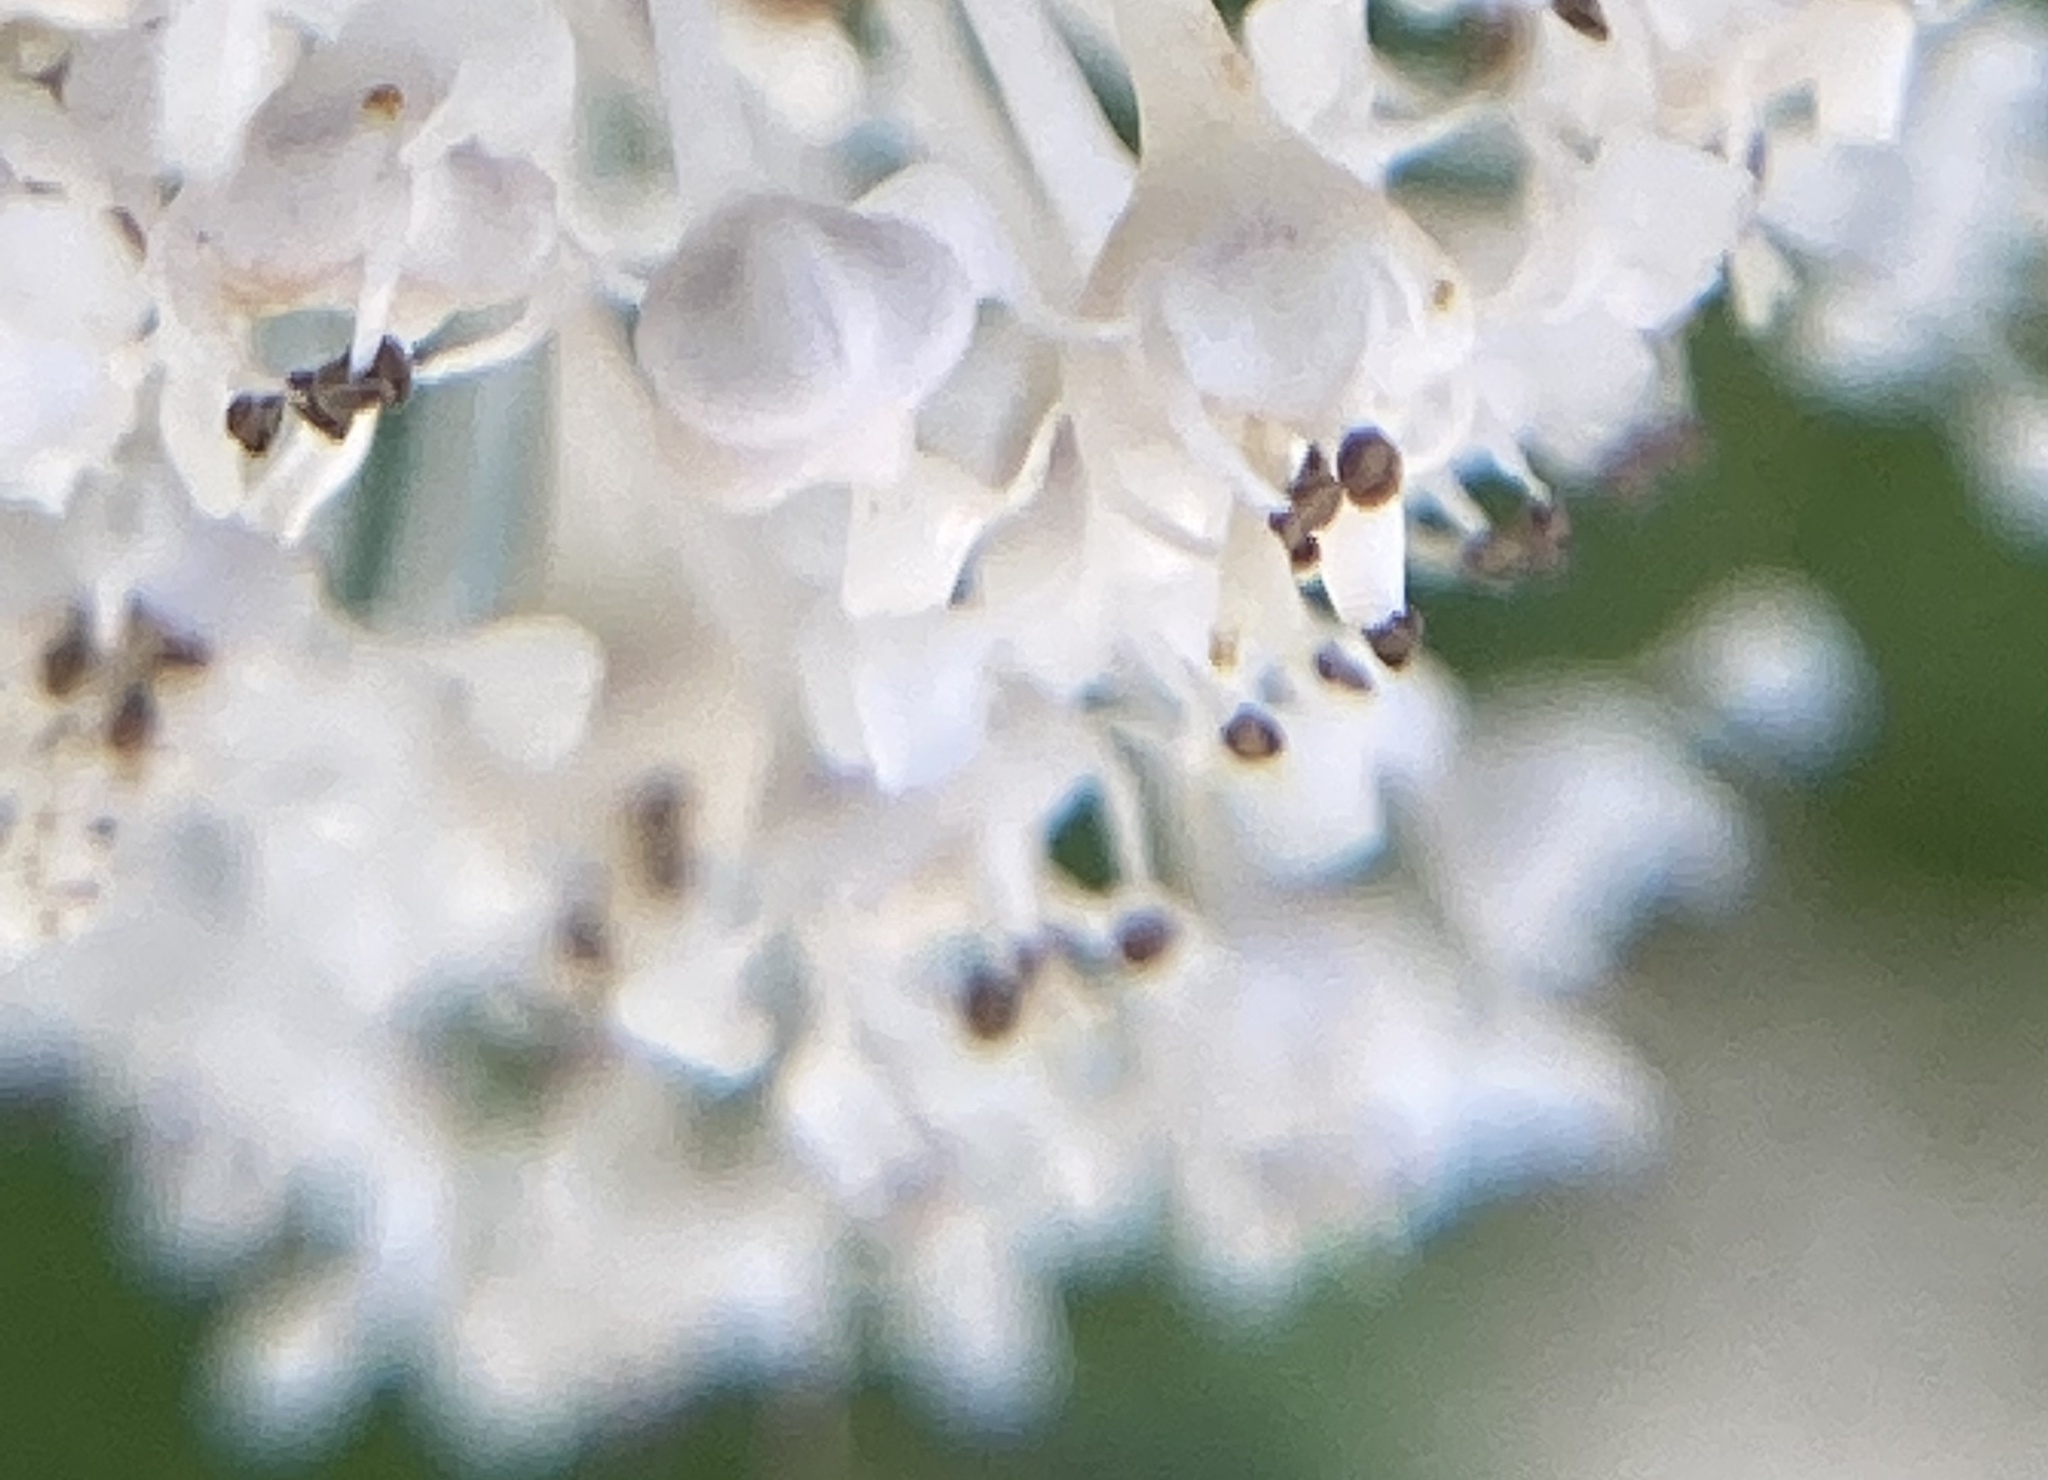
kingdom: Plantae
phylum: Tracheophyta
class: Magnoliopsida
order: Rosales
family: Rhamnaceae
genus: Ceanothus
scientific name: Ceanothus americanus
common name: Redroot
